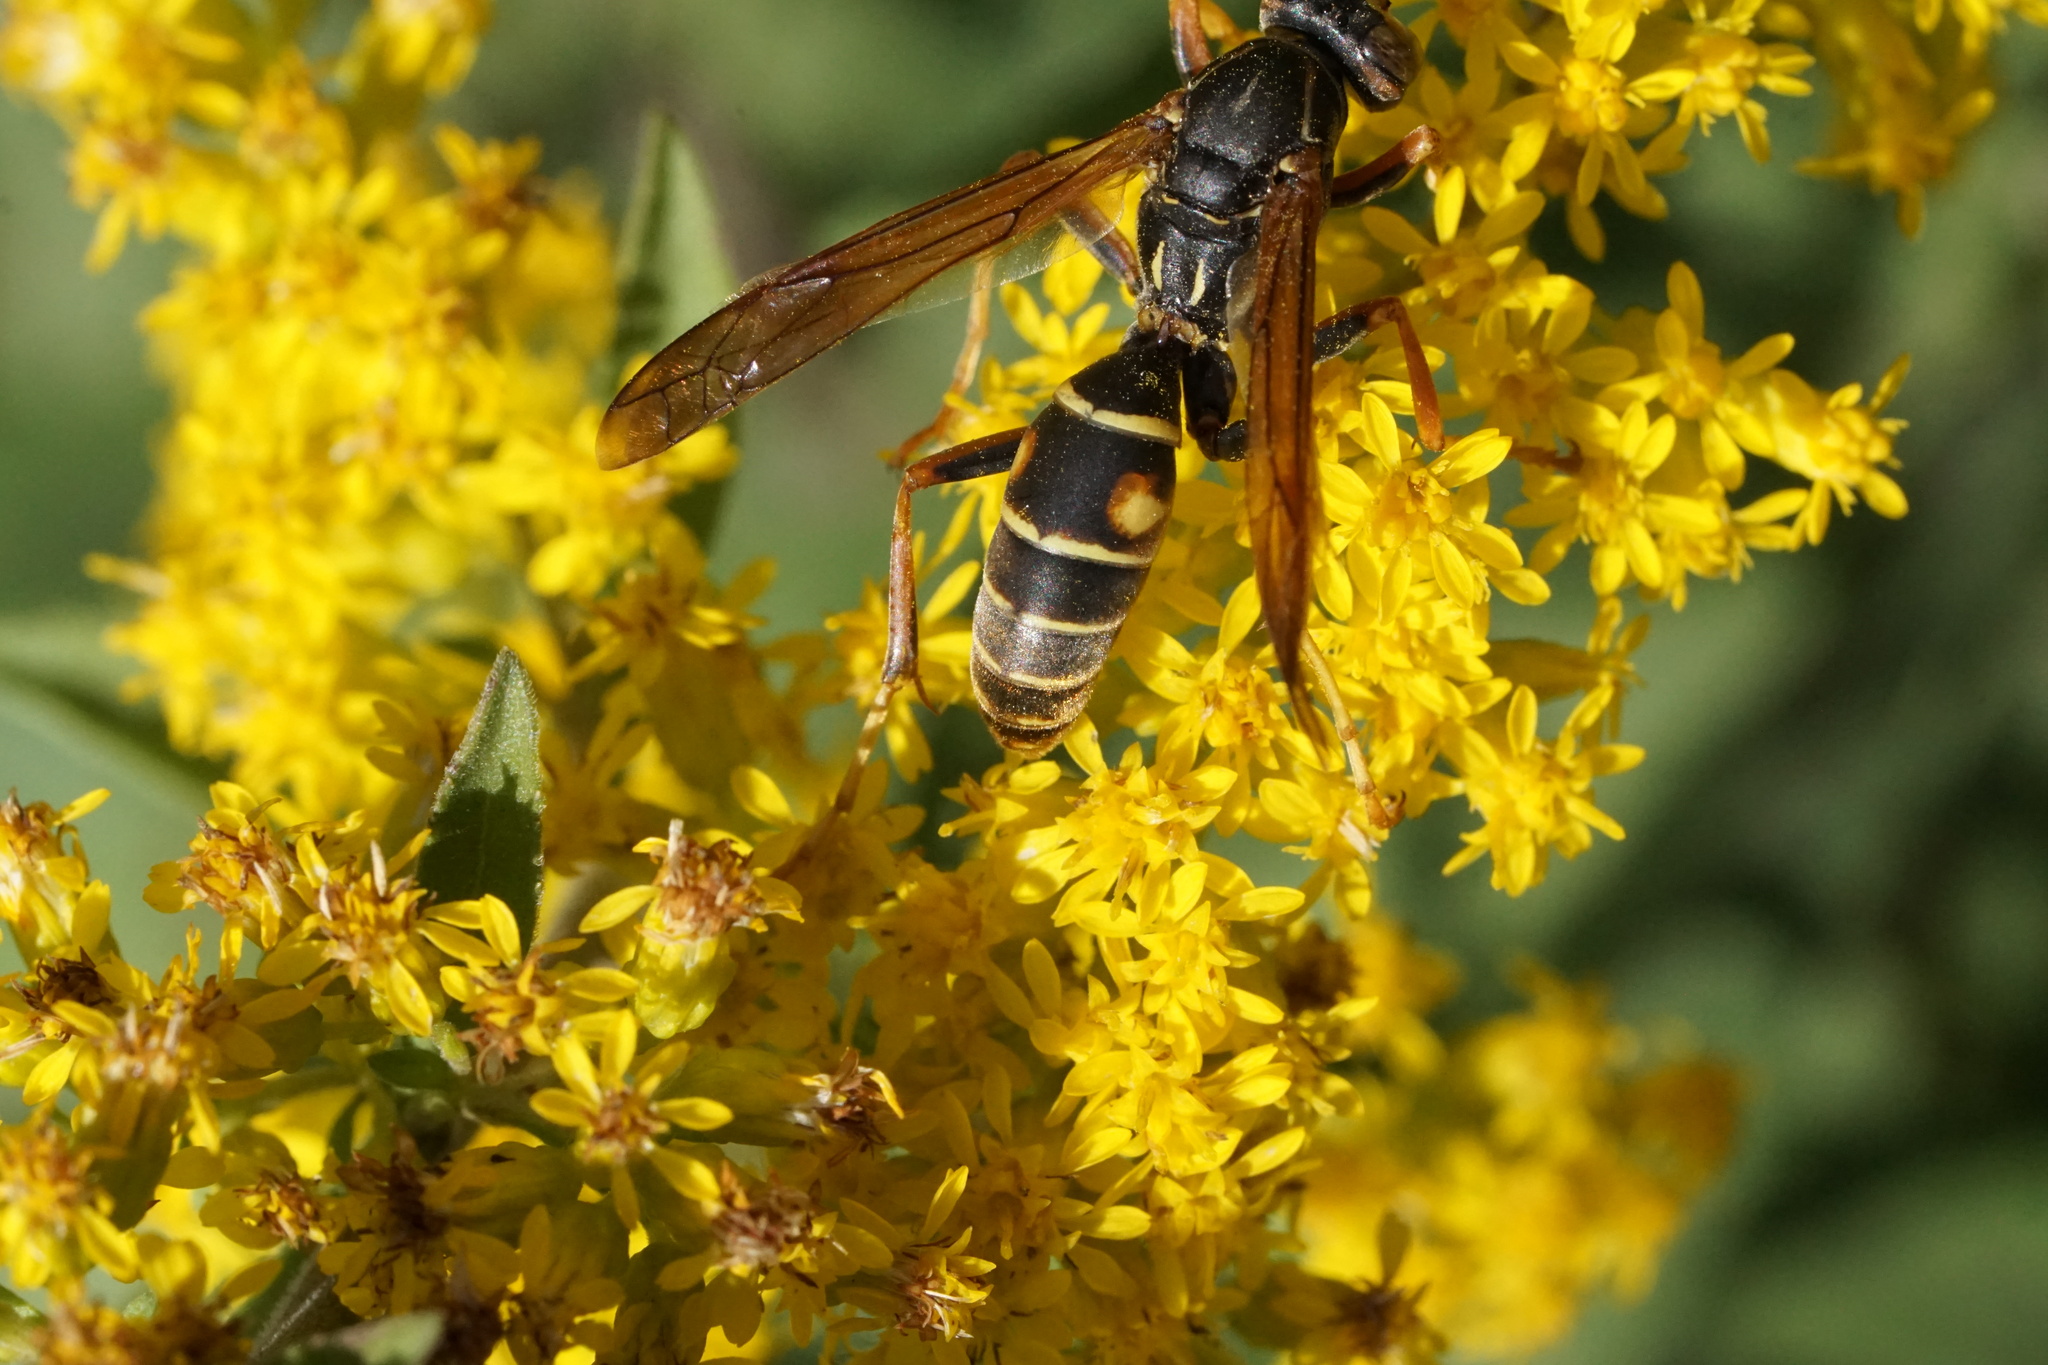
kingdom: Animalia
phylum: Arthropoda
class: Insecta
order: Hymenoptera
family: Eumenidae
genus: Polistes
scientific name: Polistes fuscatus
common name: Dark paper wasp
